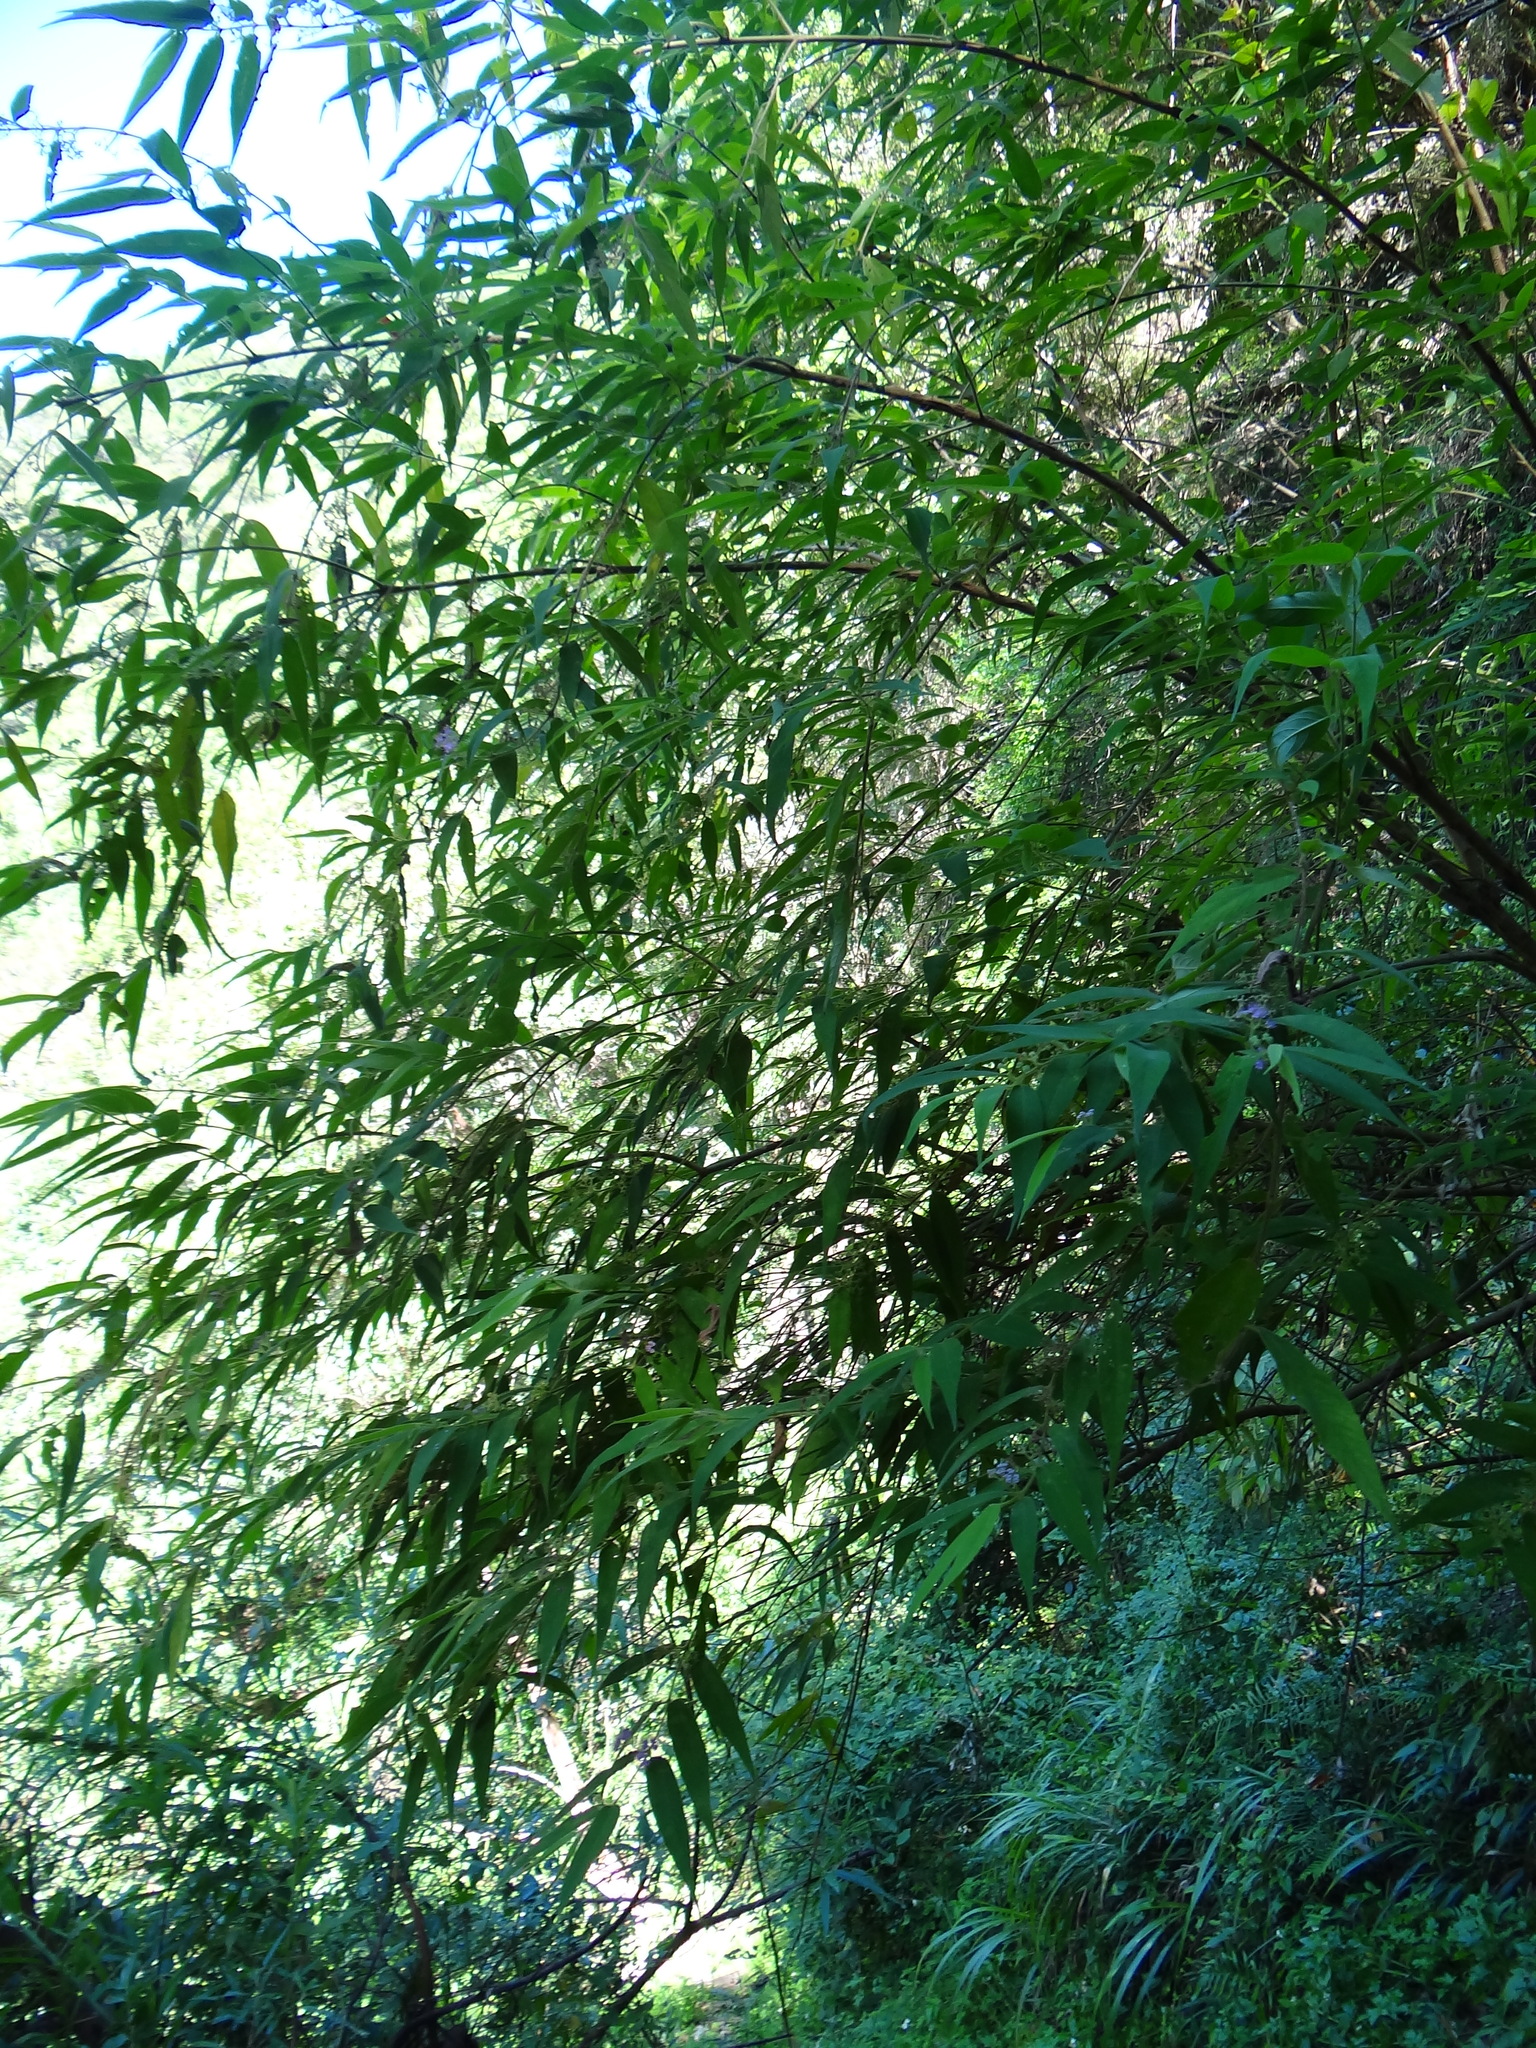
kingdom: Plantae
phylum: Tracheophyta
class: Magnoliopsida
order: Lamiales
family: Lamiaceae
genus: Callicarpa
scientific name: Callicarpa pilosissima
